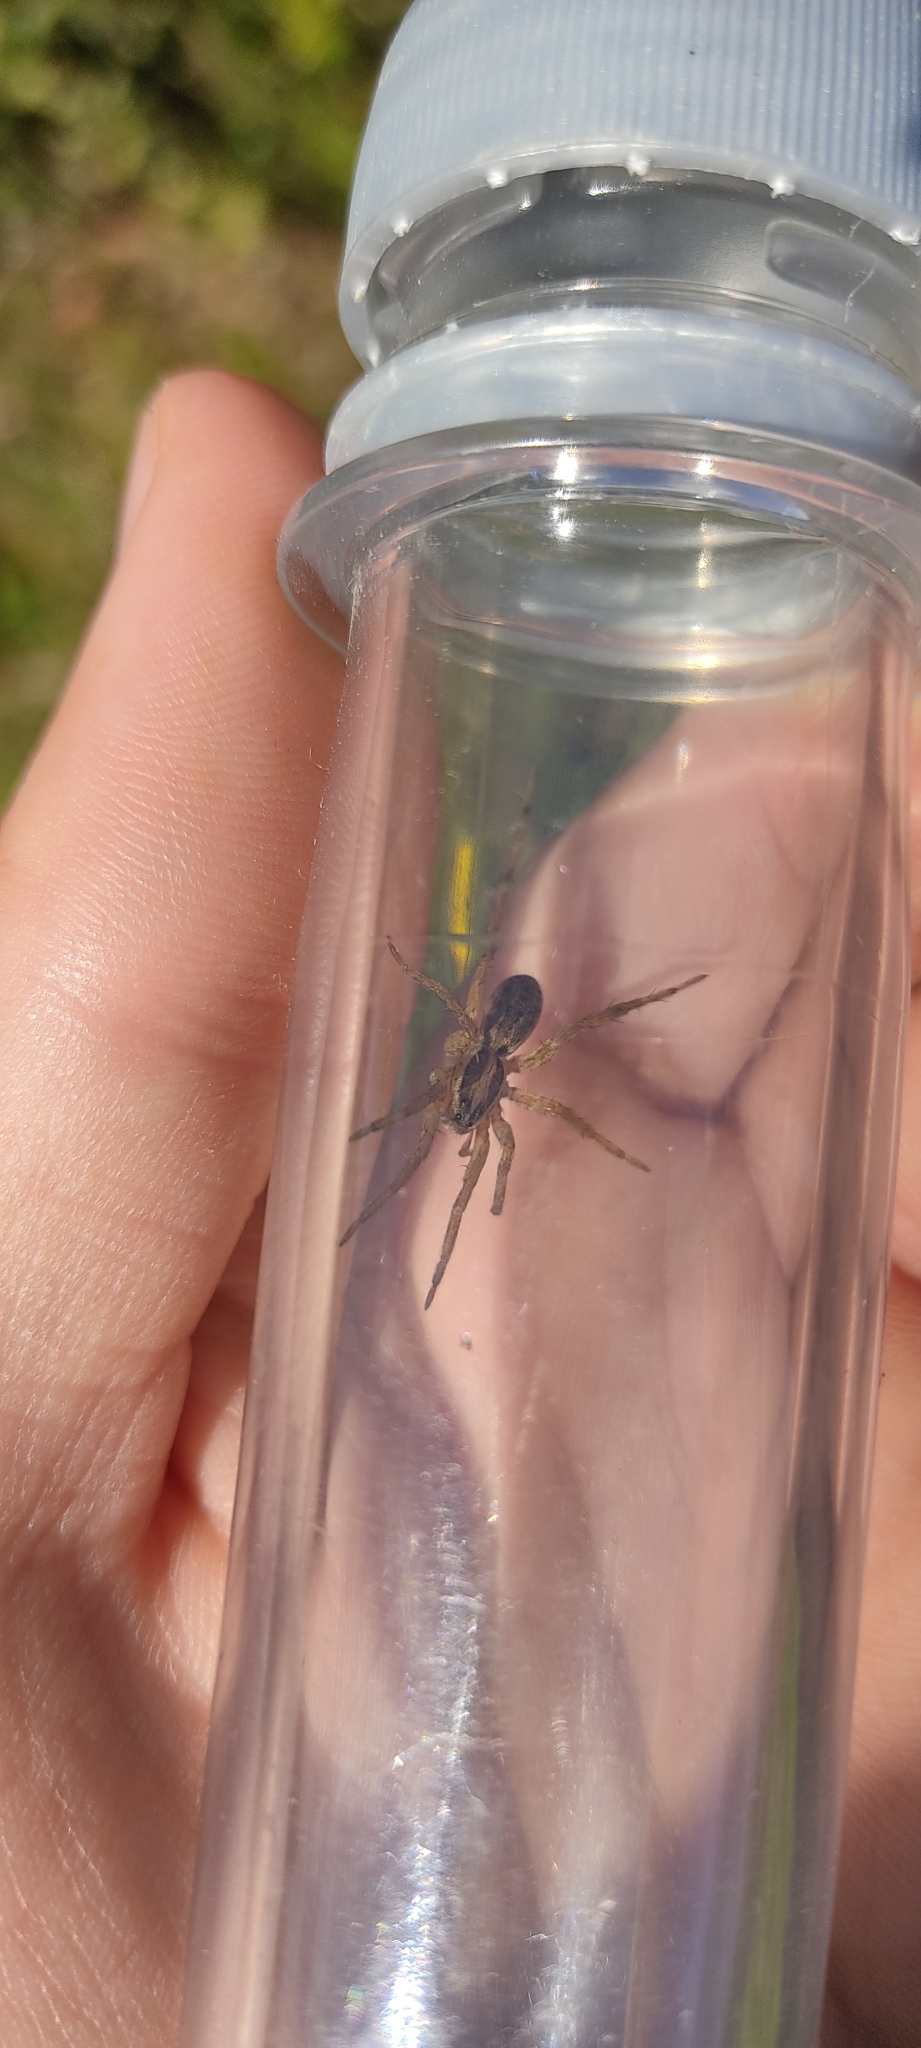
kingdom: Animalia
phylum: Arthropoda
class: Arachnida
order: Araneae
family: Lycosidae
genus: Hogna
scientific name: Hogna radiata
